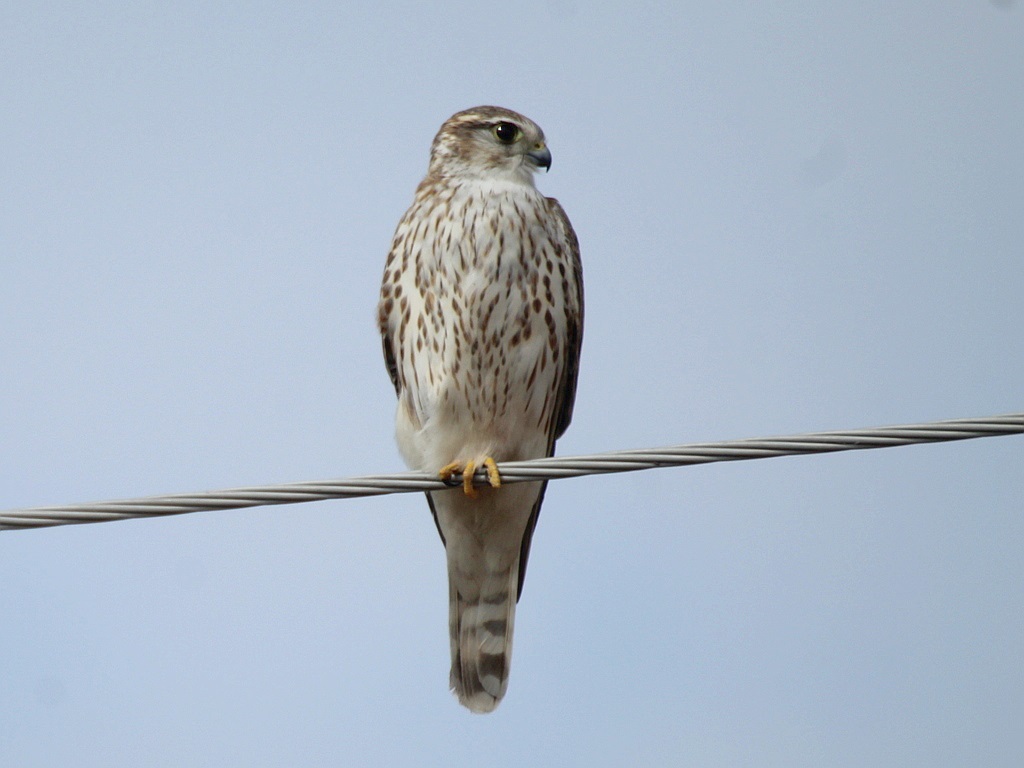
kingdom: Animalia
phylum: Chordata
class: Aves
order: Falconiformes
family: Falconidae
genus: Falco
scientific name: Falco columbarius
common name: Merlin
